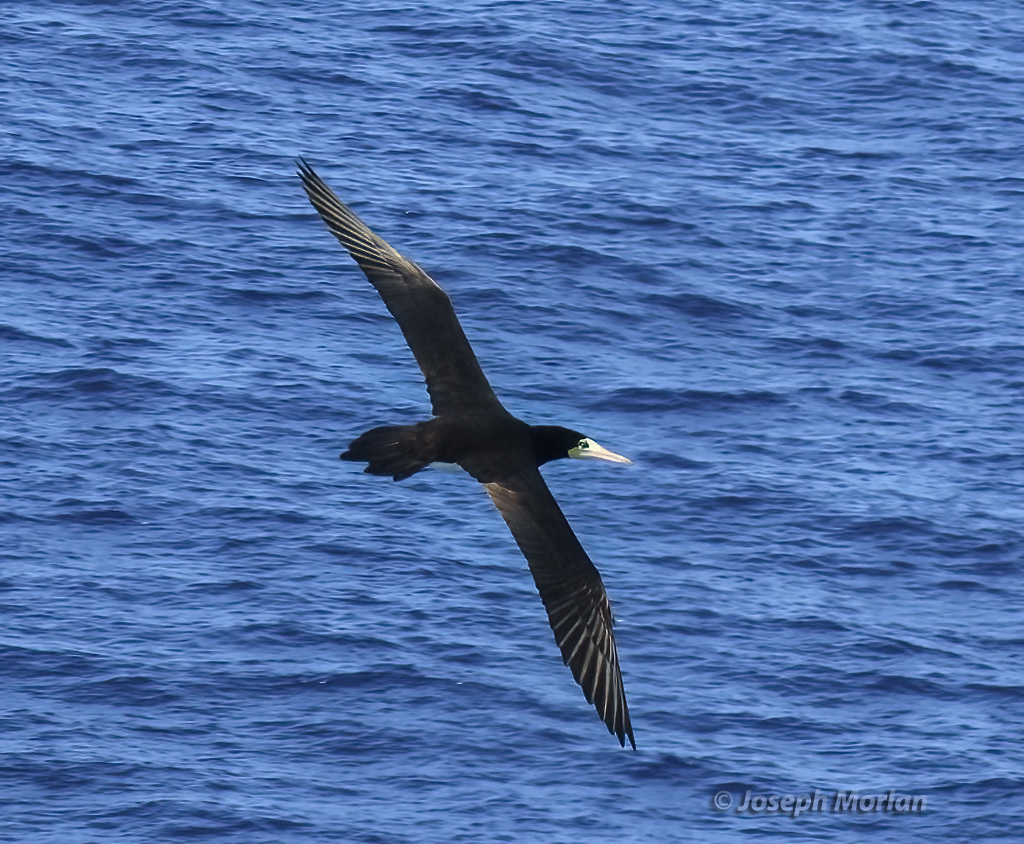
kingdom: Animalia
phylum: Chordata
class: Aves
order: Suliformes
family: Sulidae
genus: Sula
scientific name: Sula leucogaster
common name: Brown booby
